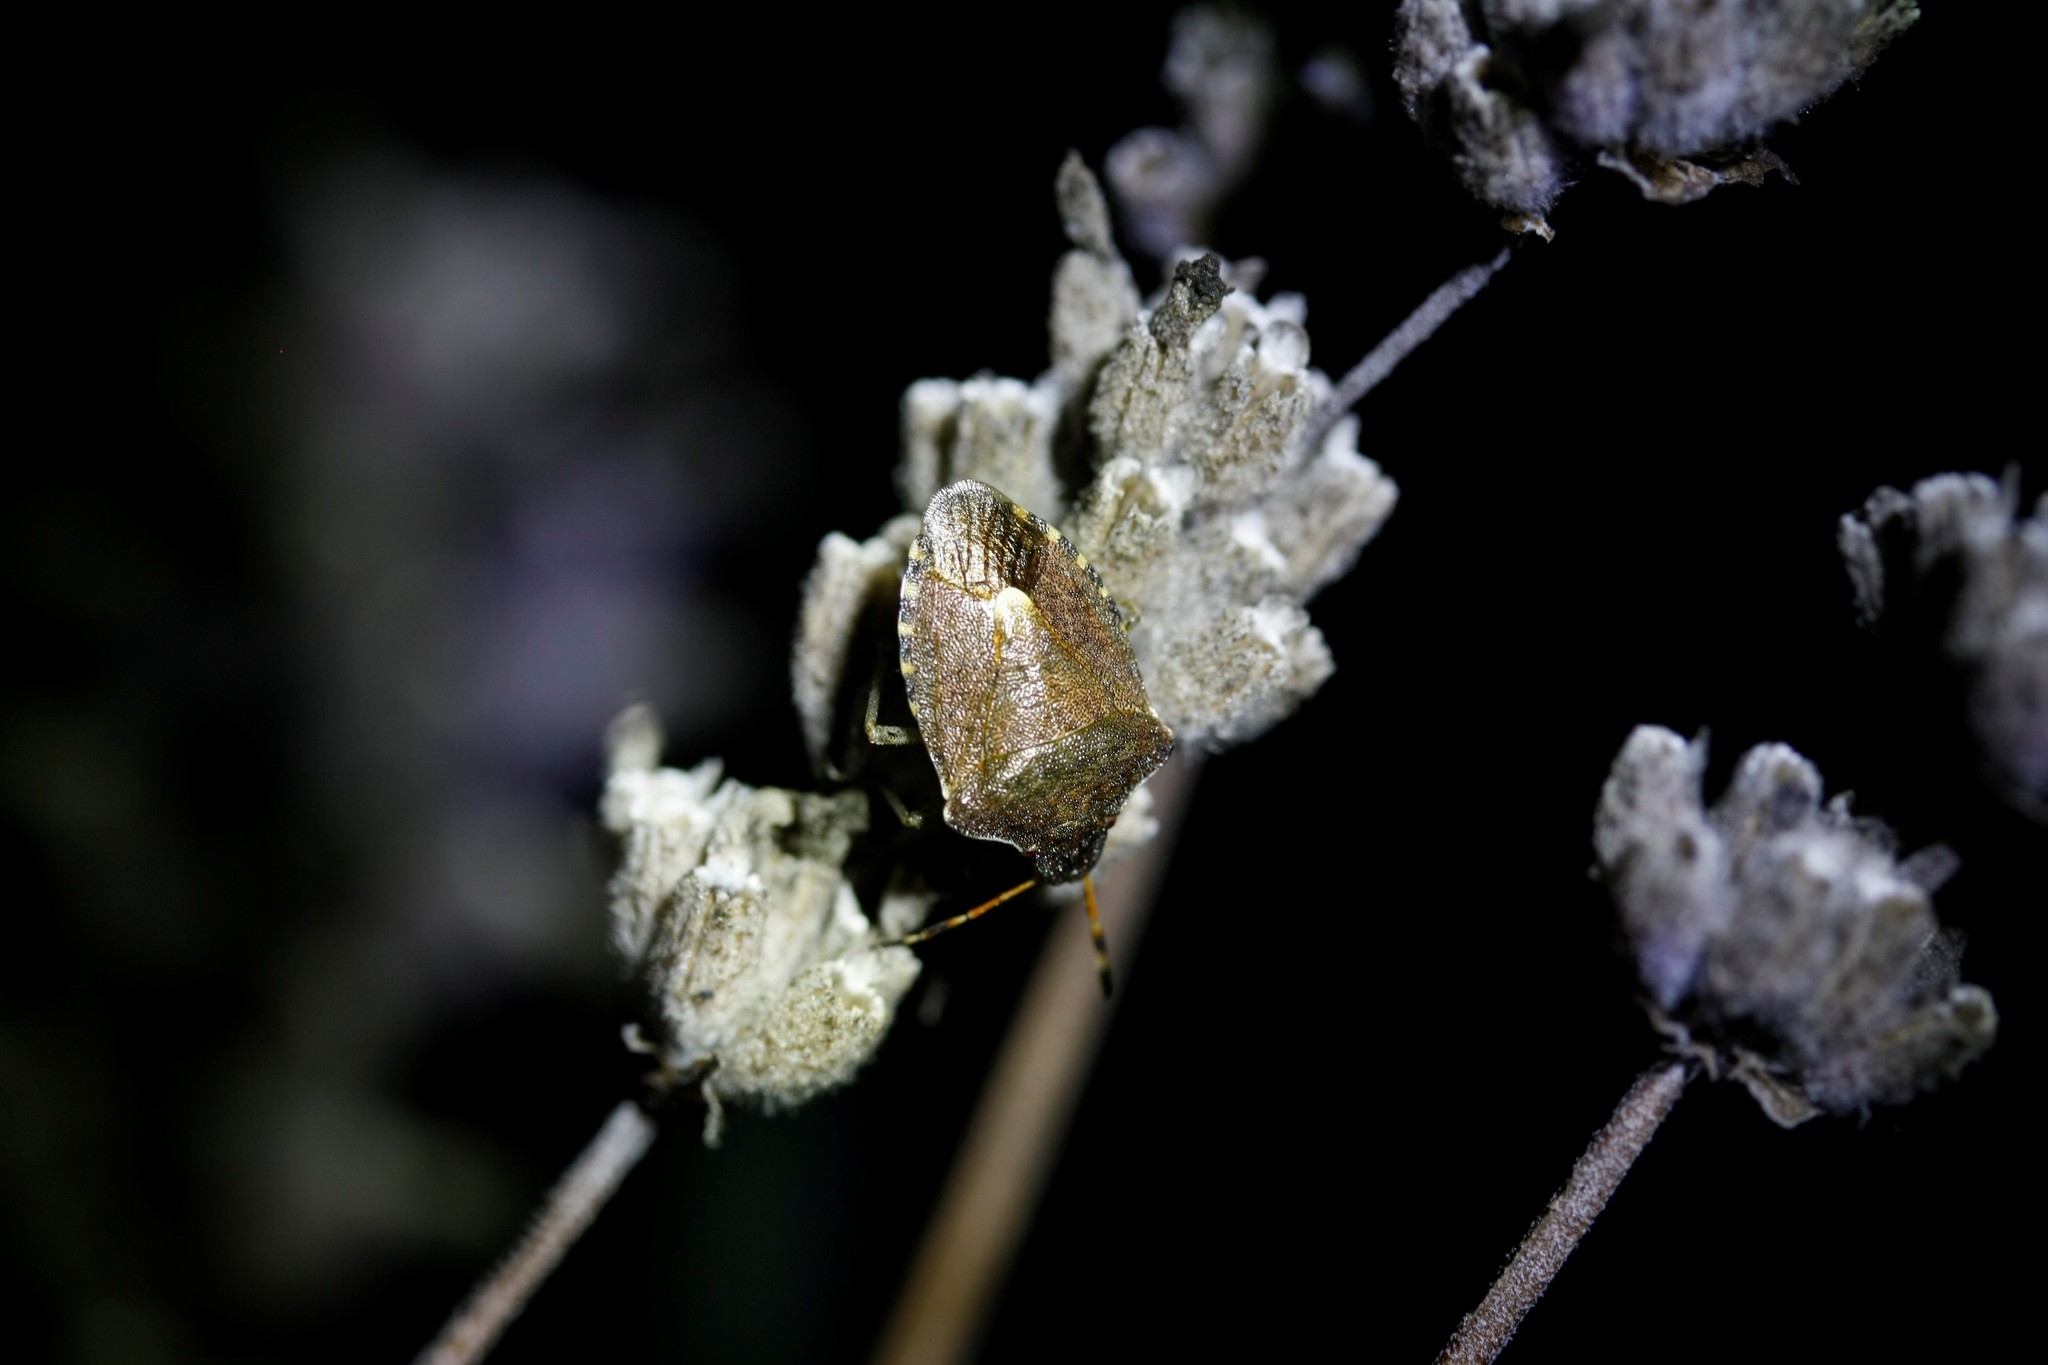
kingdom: Animalia
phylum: Arthropoda
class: Insecta
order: Hemiptera
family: Pentatomidae
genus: Holcostethus
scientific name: Holcostethus strictus
